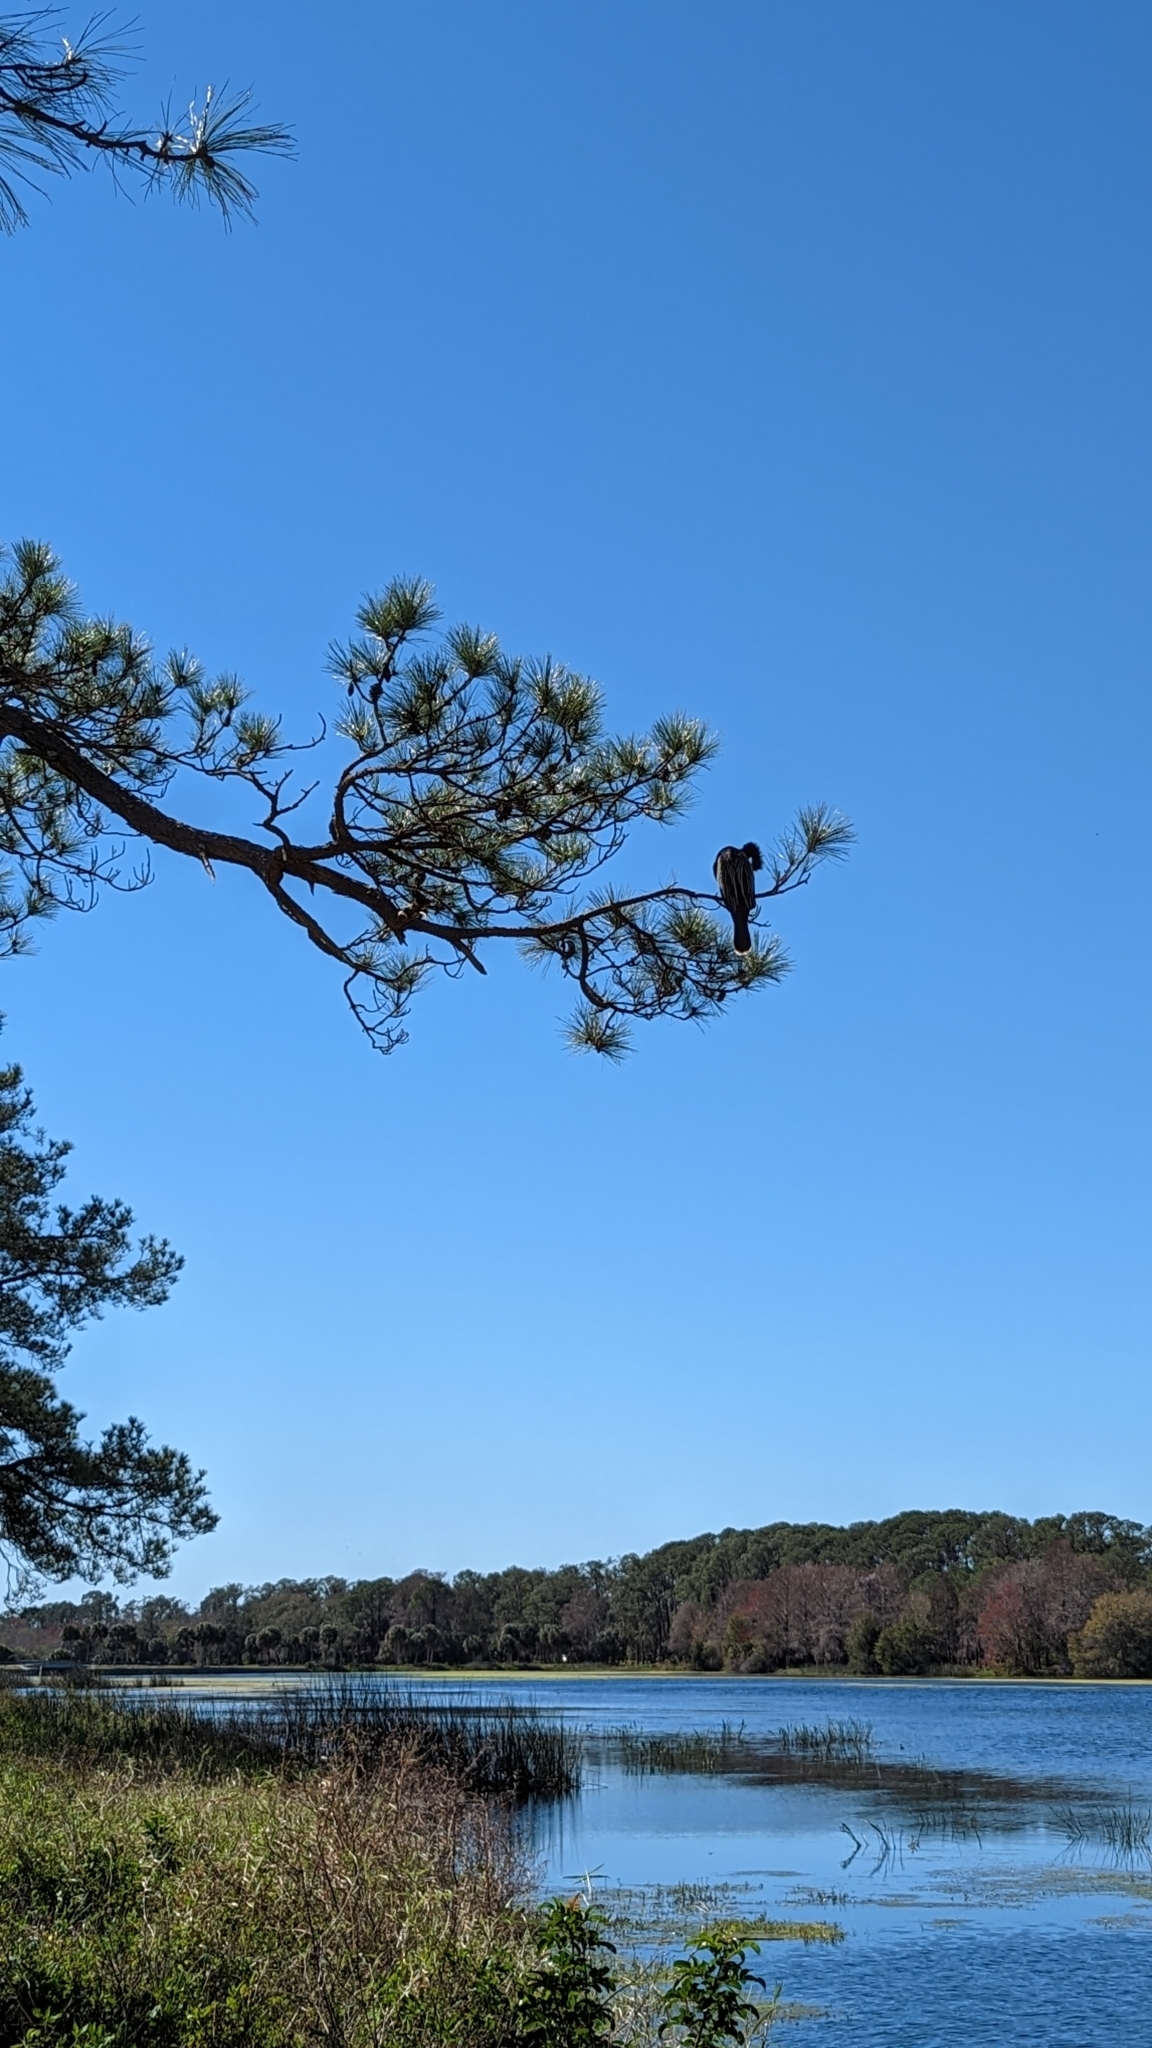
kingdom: Animalia
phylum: Chordata
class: Aves
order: Suliformes
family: Anhingidae
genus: Anhinga
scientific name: Anhinga anhinga
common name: Anhinga
